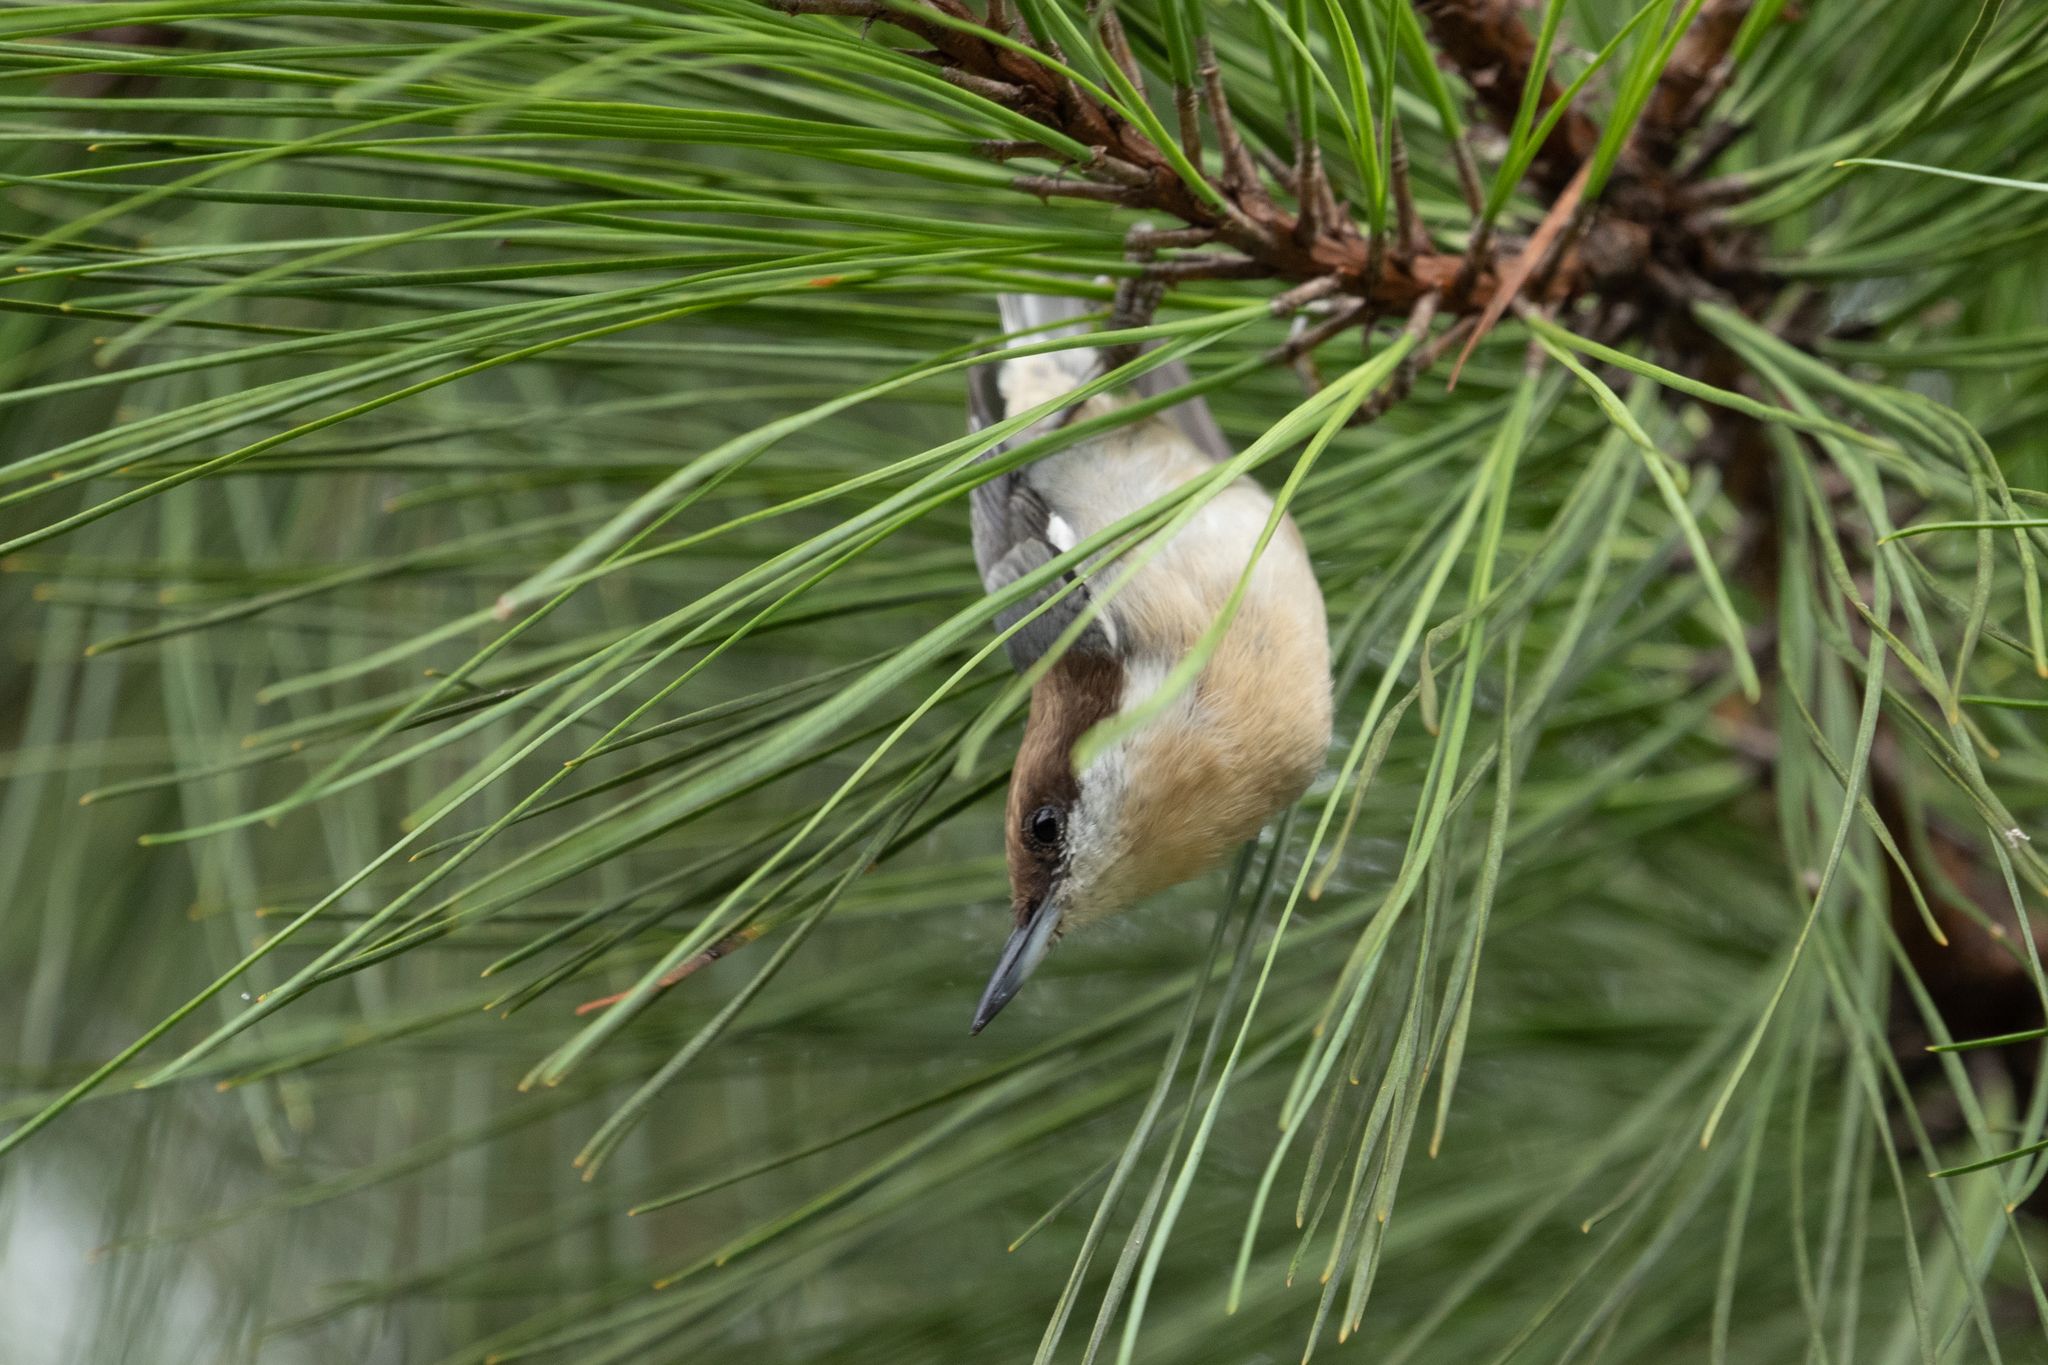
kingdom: Animalia
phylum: Chordata
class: Aves
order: Passeriformes
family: Sittidae
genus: Sitta
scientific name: Sitta pusilla
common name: Brown-headed nuthatch
